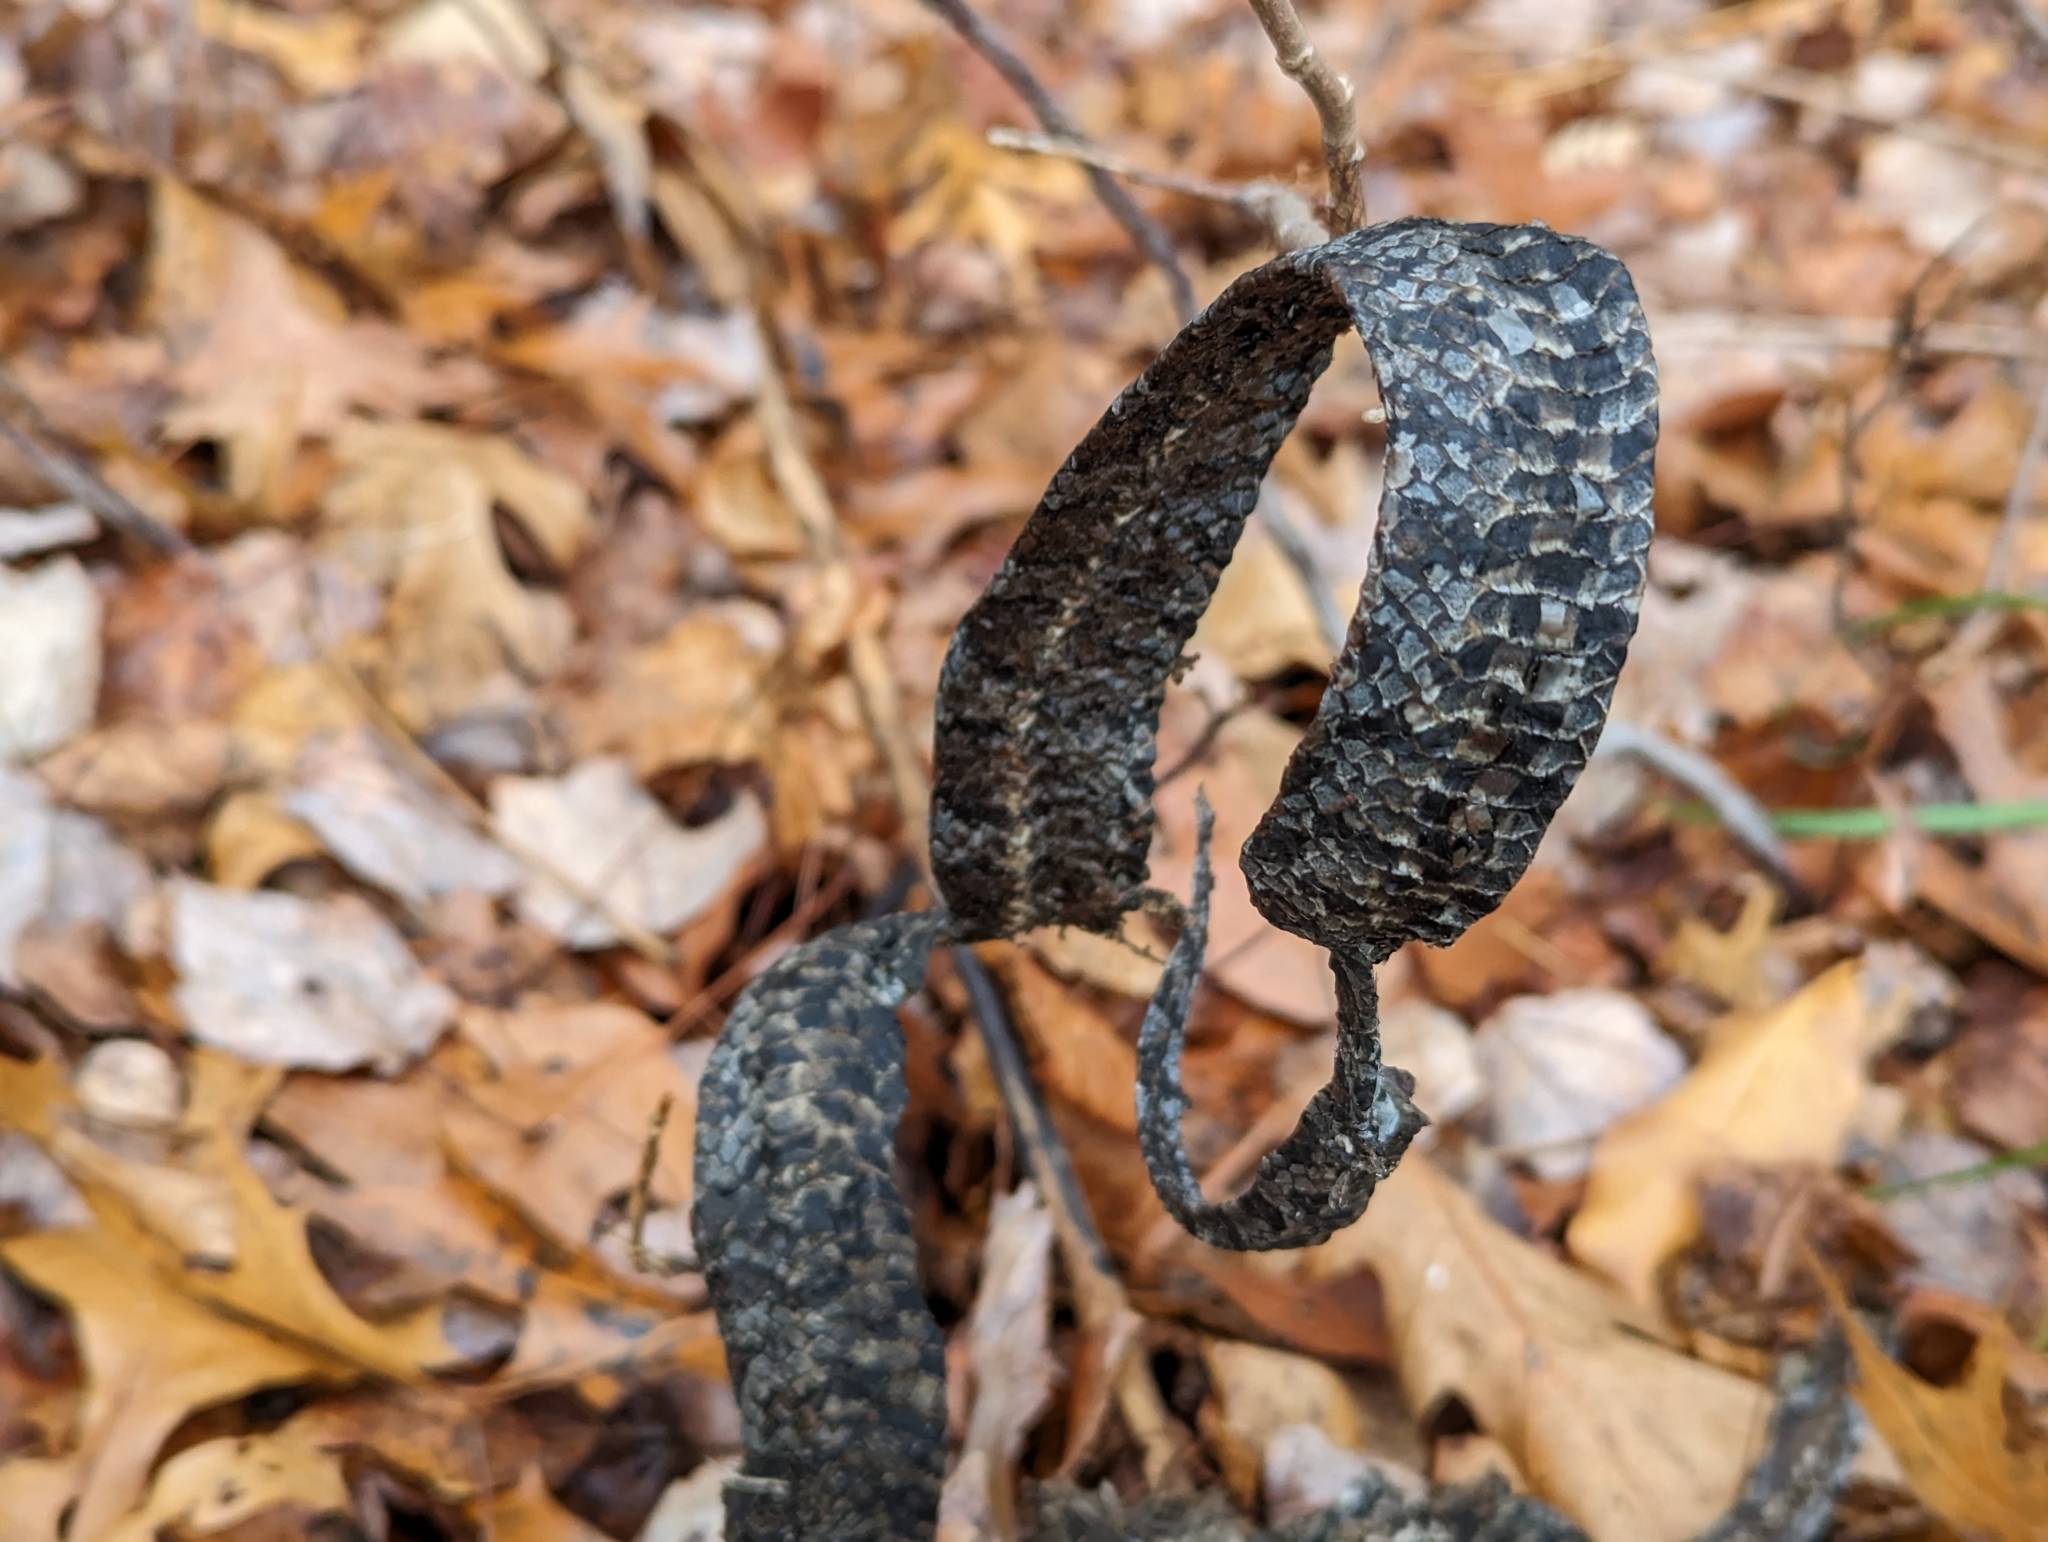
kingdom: Animalia
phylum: Chordata
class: Squamata
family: Colubridae
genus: Lampropeltis
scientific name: Lampropeltis triangulum
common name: Eastern milksnake
